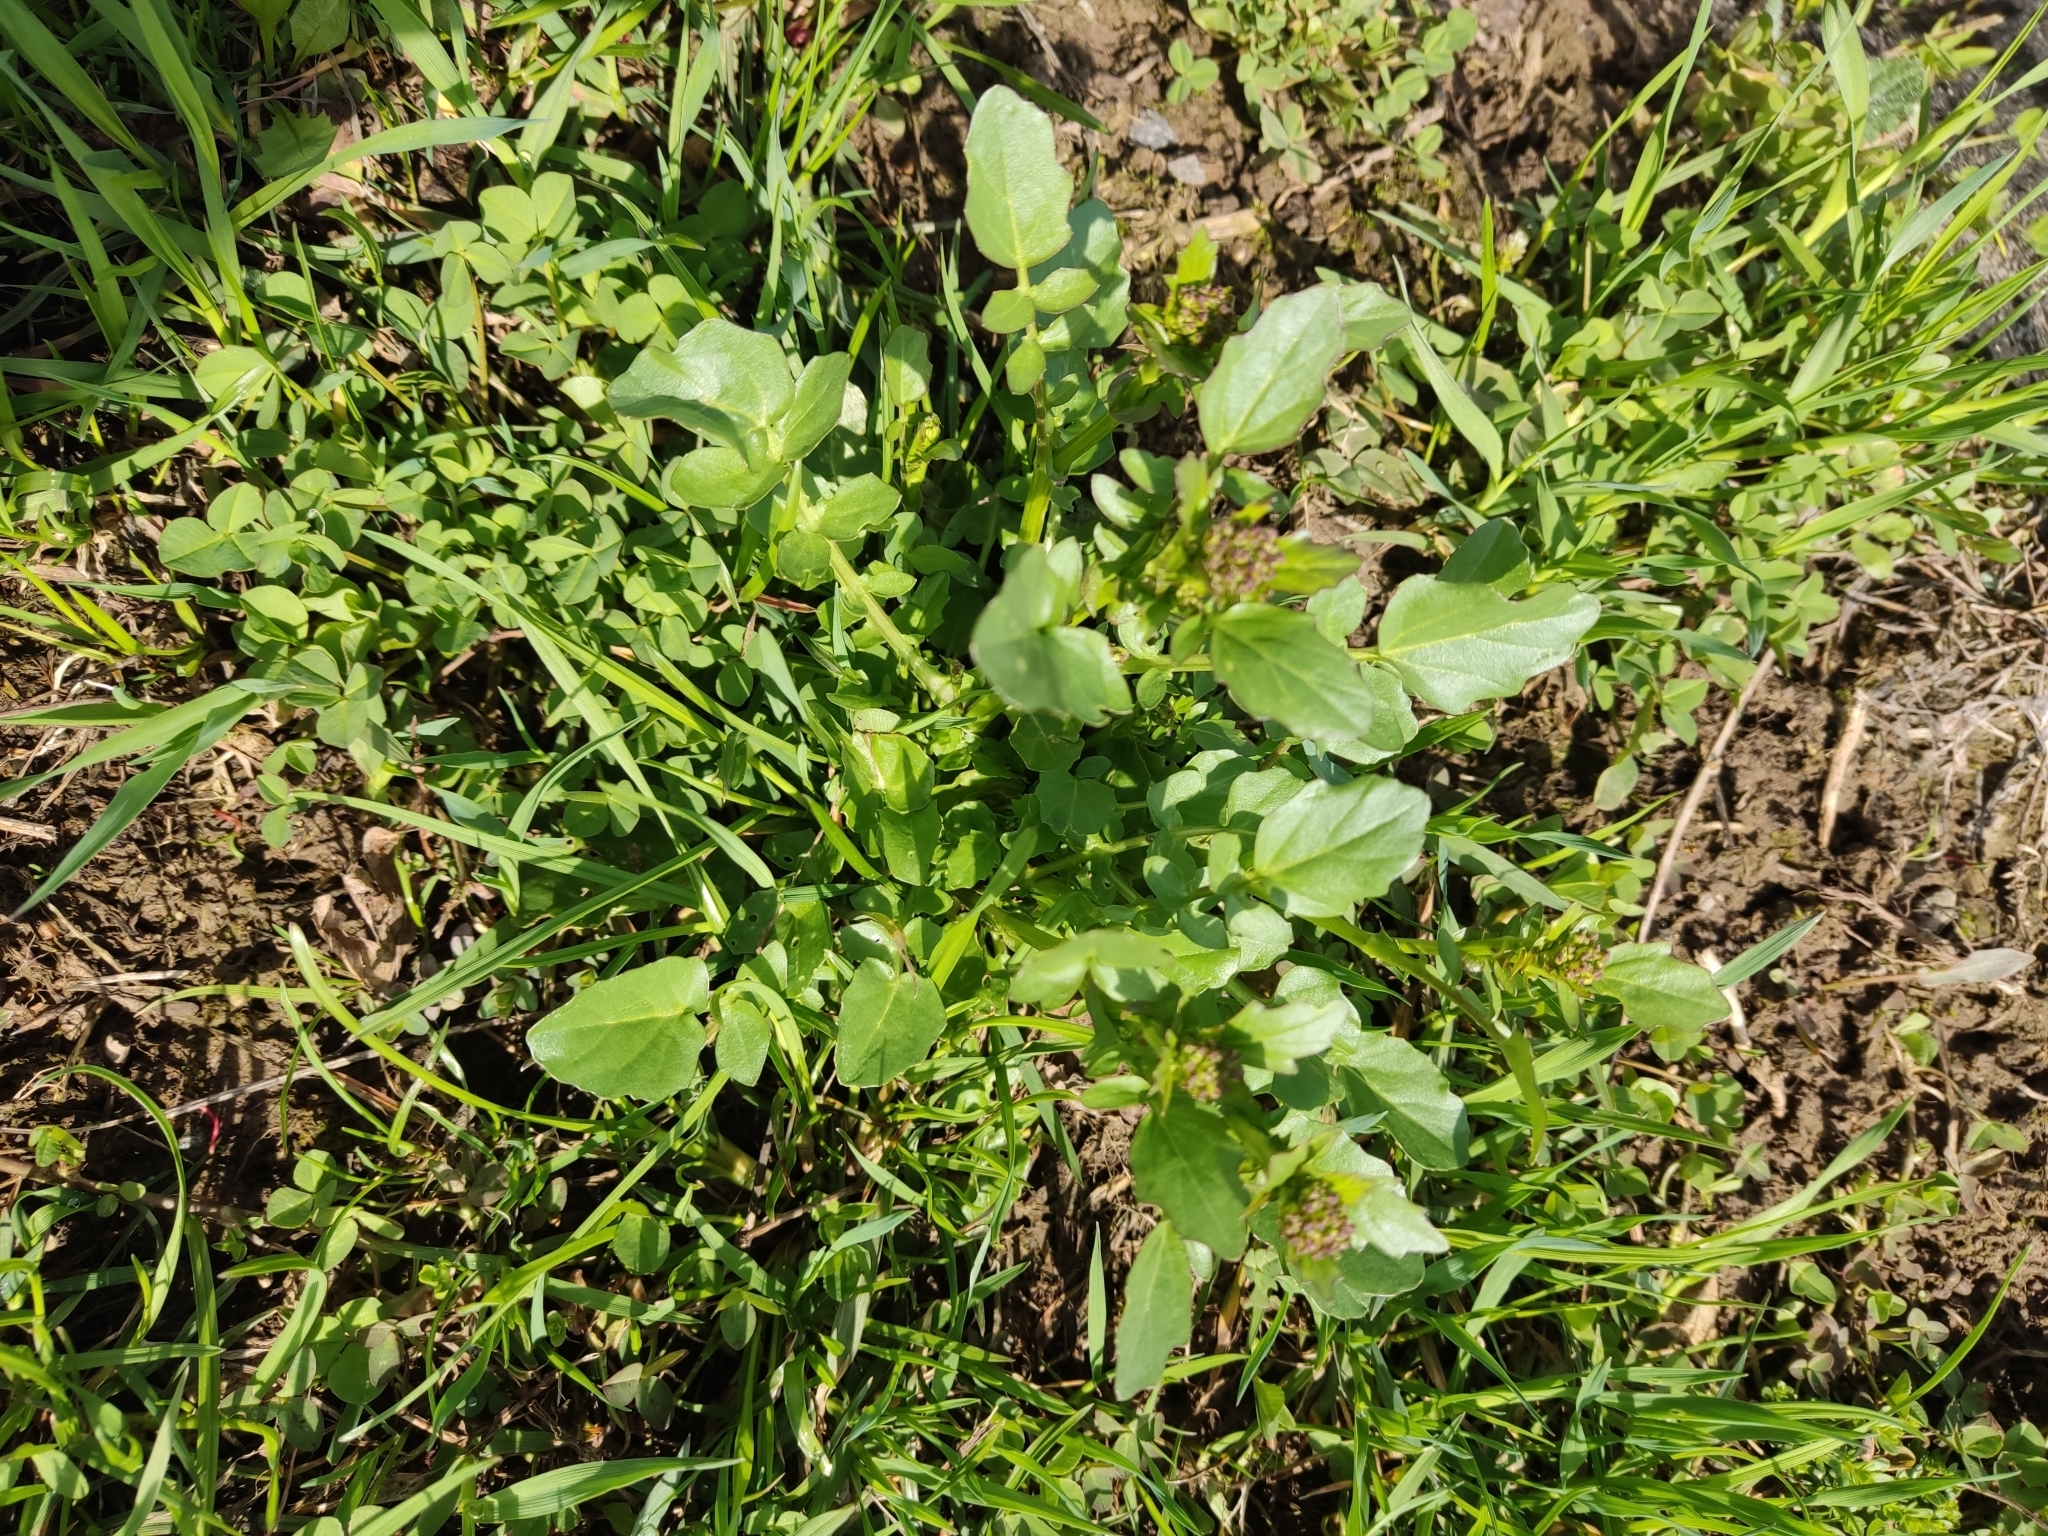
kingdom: Plantae
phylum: Tracheophyta
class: Magnoliopsida
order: Brassicales
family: Brassicaceae
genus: Barbarea
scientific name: Barbarea vulgaris
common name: Cressy-greens
